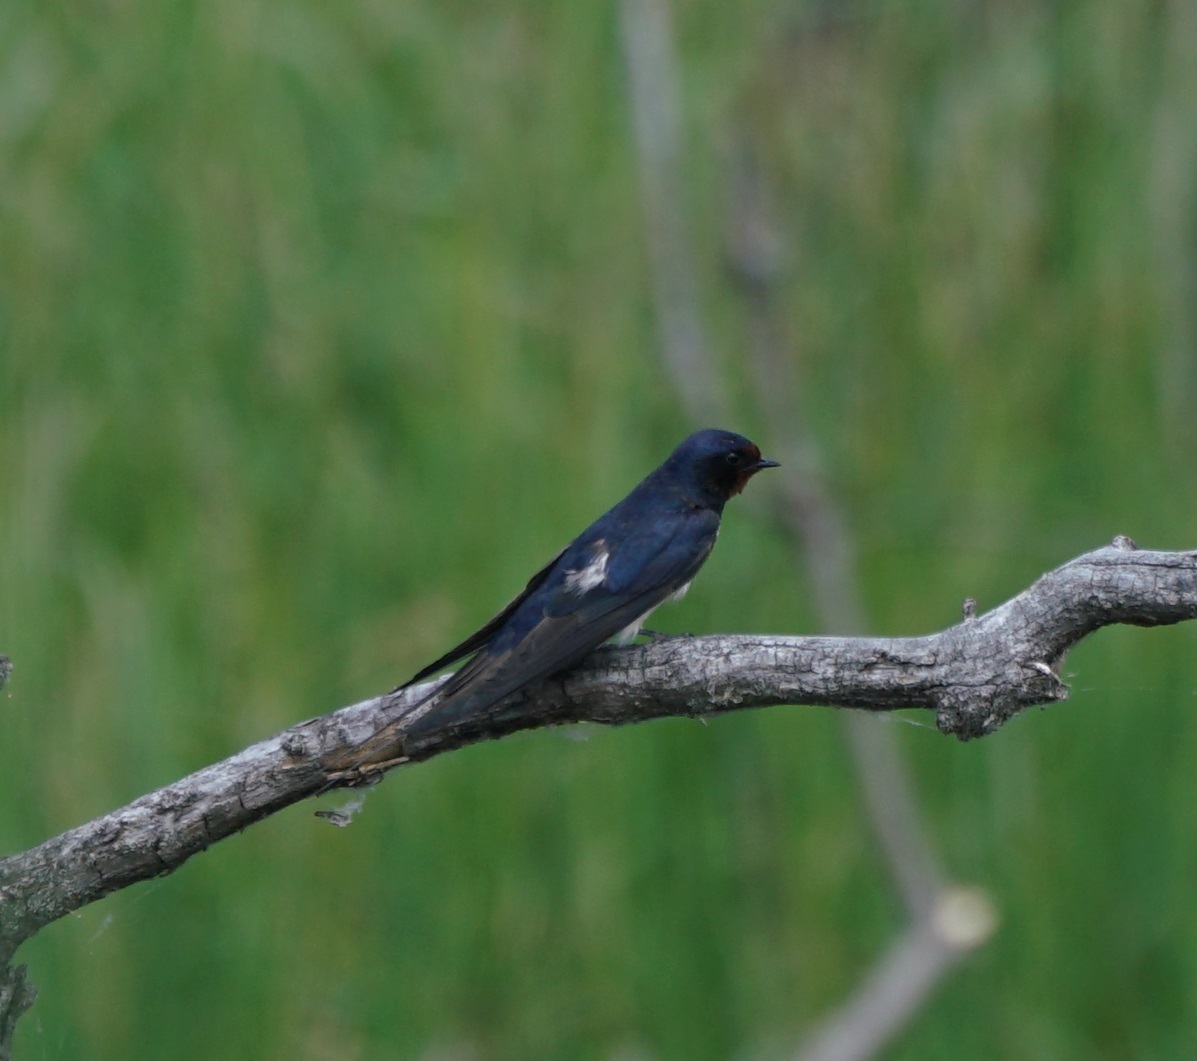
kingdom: Animalia
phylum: Chordata
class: Aves
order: Passeriformes
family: Hirundinidae
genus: Hirundo
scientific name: Hirundo rustica
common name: Barn swallow
